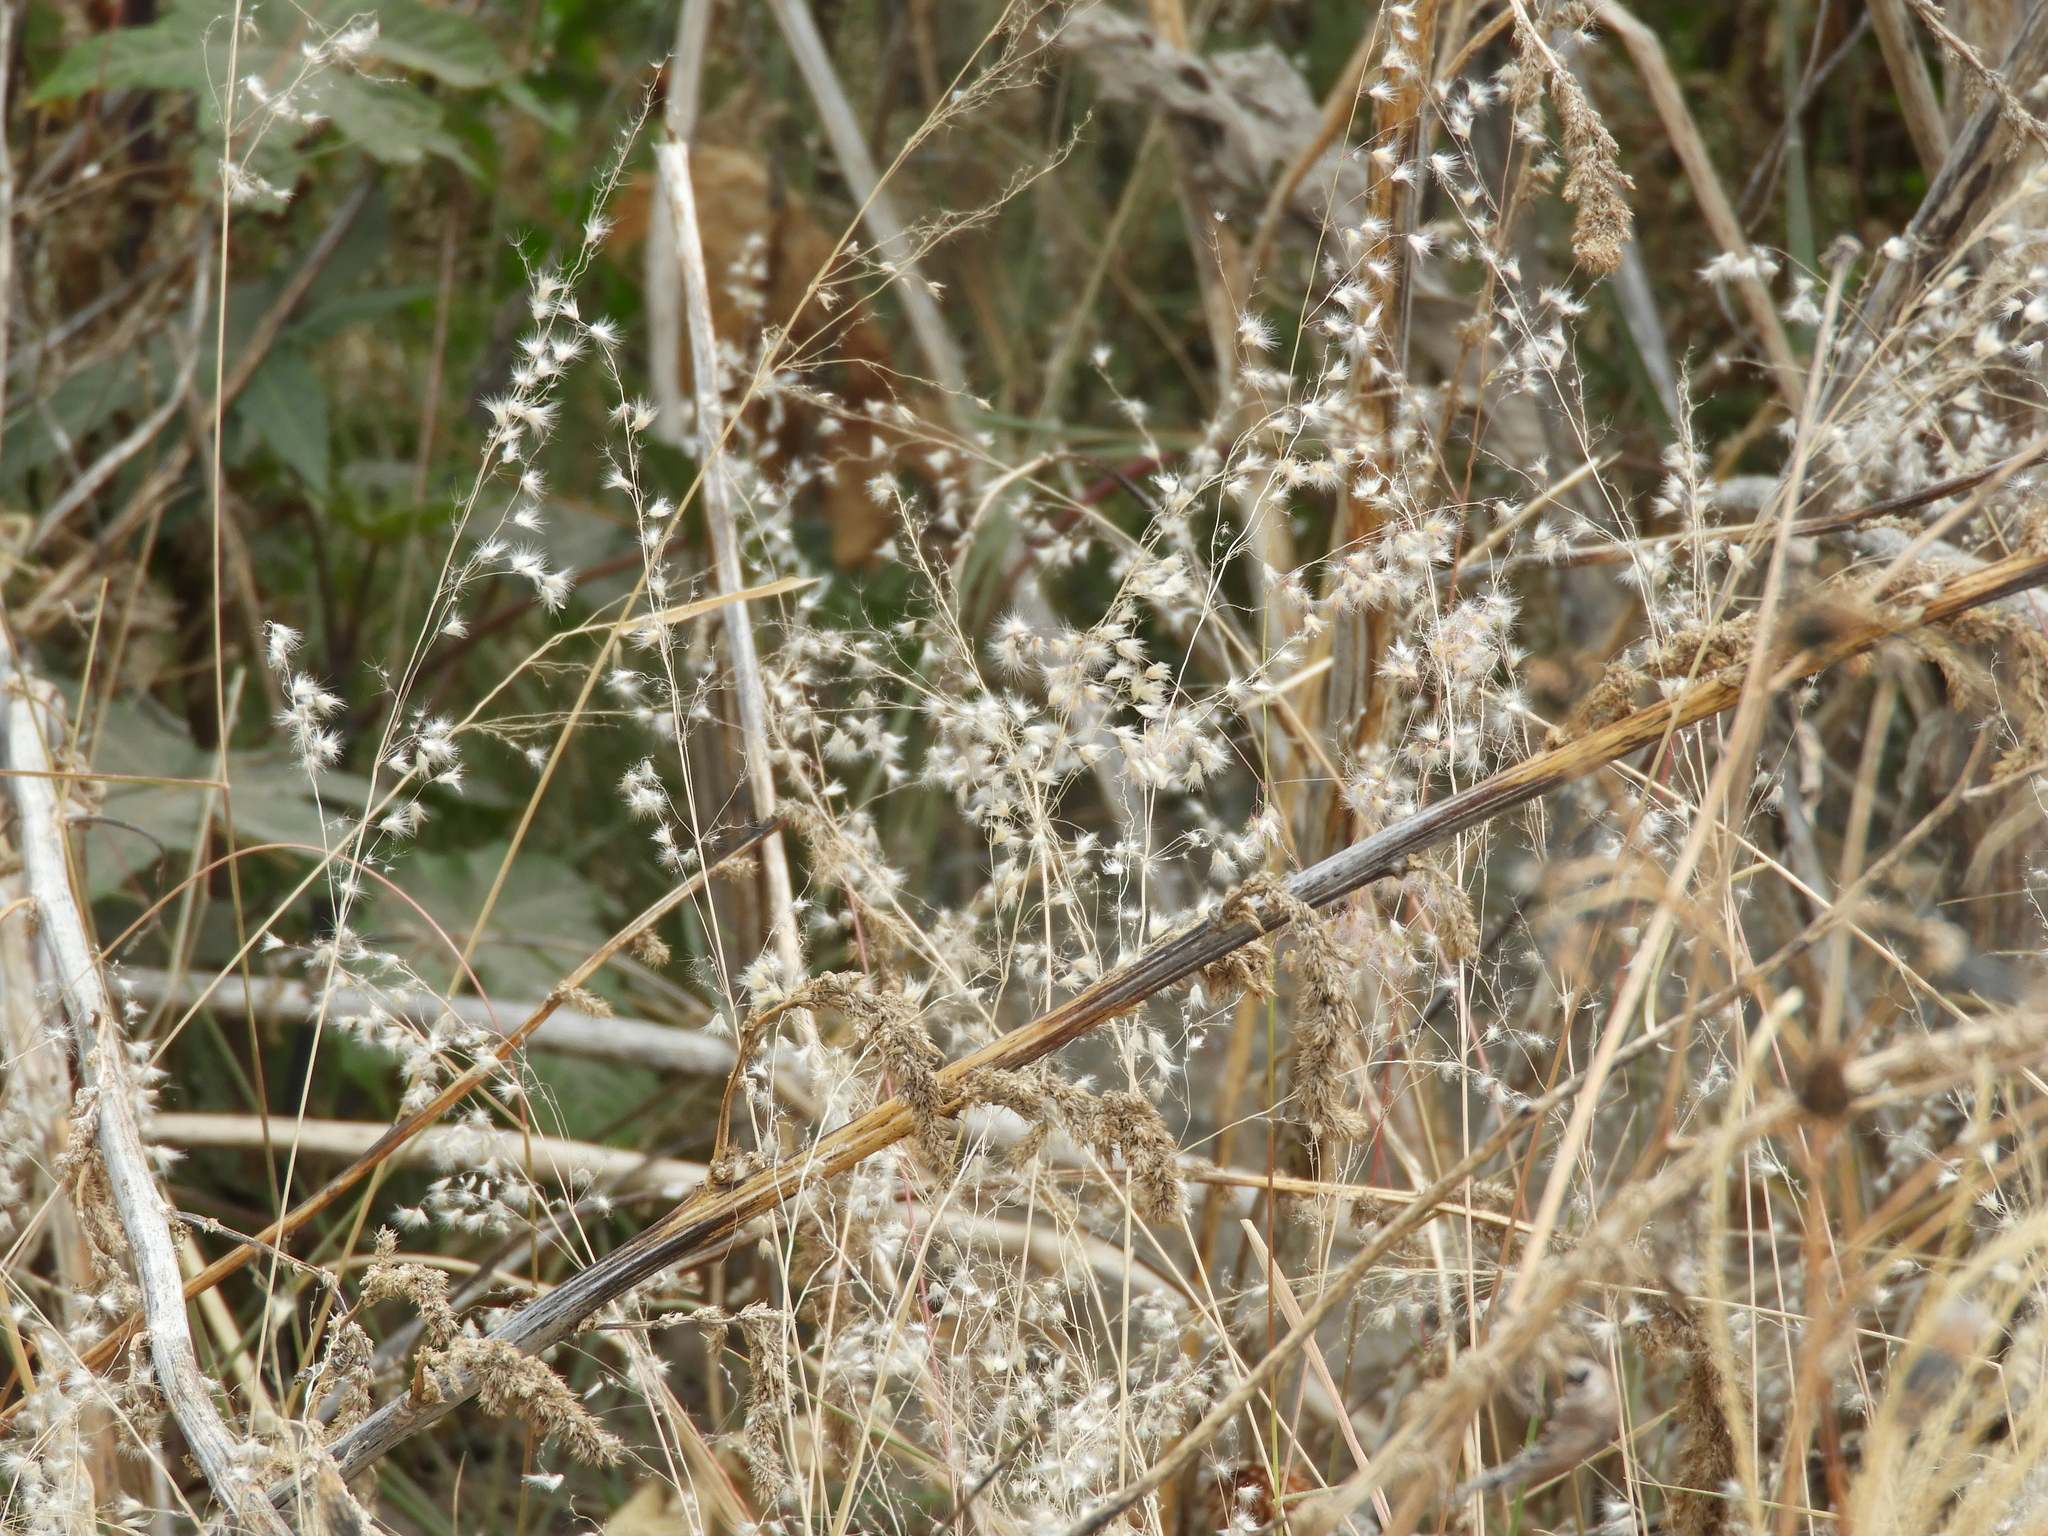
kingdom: Plantae
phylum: Tracheophyta
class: Liliopsida
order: Poales
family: Poaceae
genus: Melinis
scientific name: Melinis repens
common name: Rose natal grass
